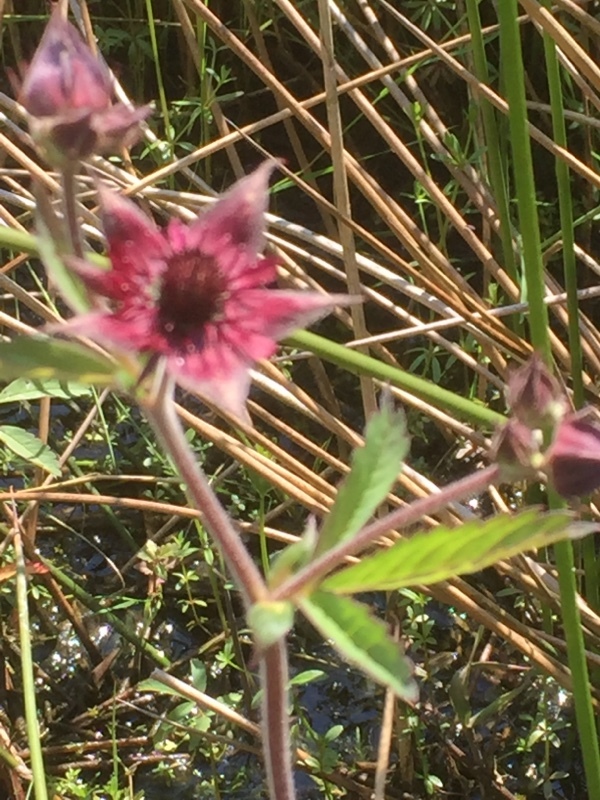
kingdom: Plantae
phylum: Tracheophyta
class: Magnoliopsida
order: Rosales
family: Rosaceae
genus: Comarum
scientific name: Comarum palustre
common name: Marsh cinquefoil
